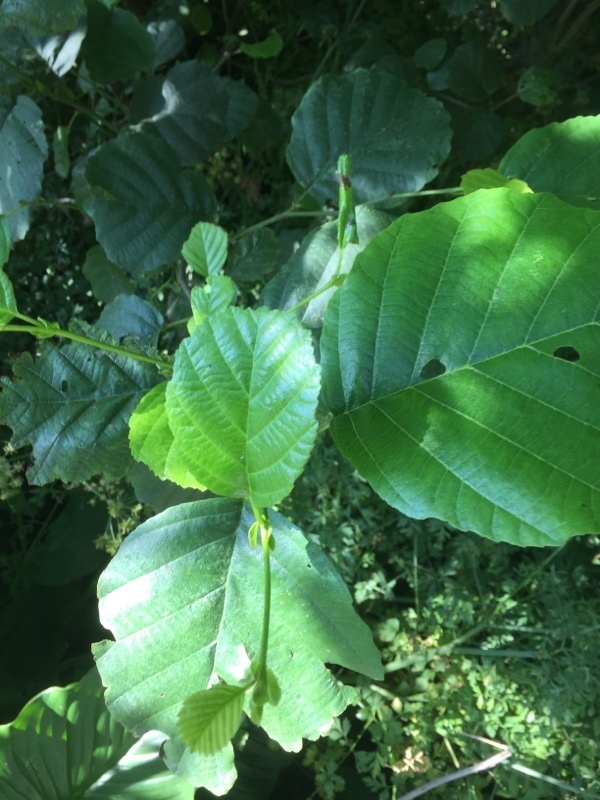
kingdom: Plantae
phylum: Tracheophyta
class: Magnoliopsida
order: Fagales
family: Betulaceae
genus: Alnus
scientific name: Alnus lusitanica
